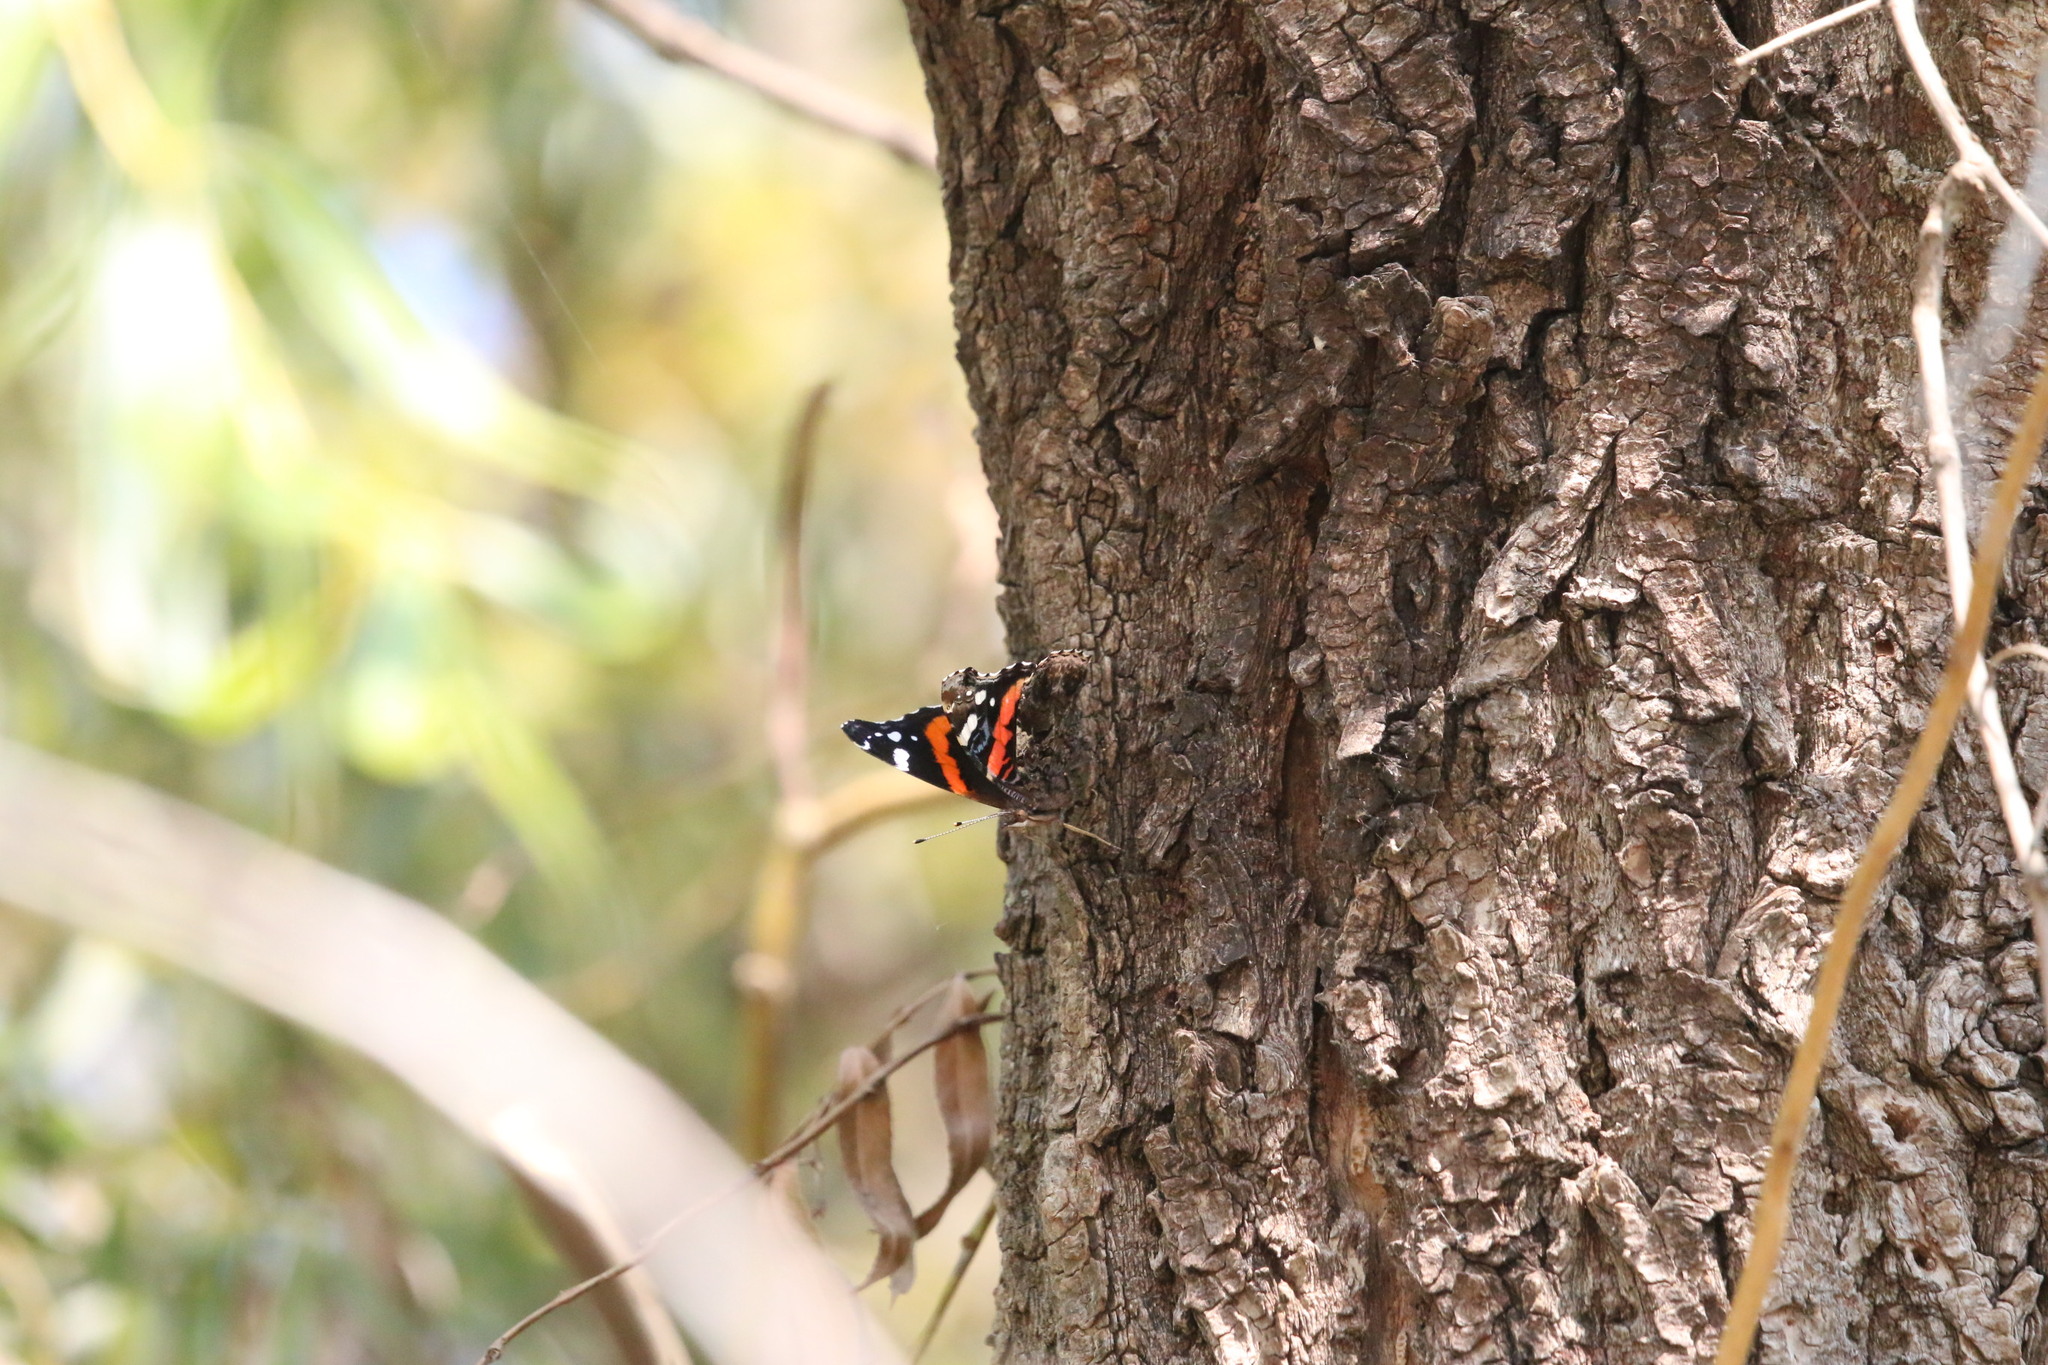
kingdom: Animalia
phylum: Arthropoda
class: Insecta
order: Lepidoptera
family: Nymphalidae
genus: Vanessa
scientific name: Vanessa atalanta
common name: Red admiral
